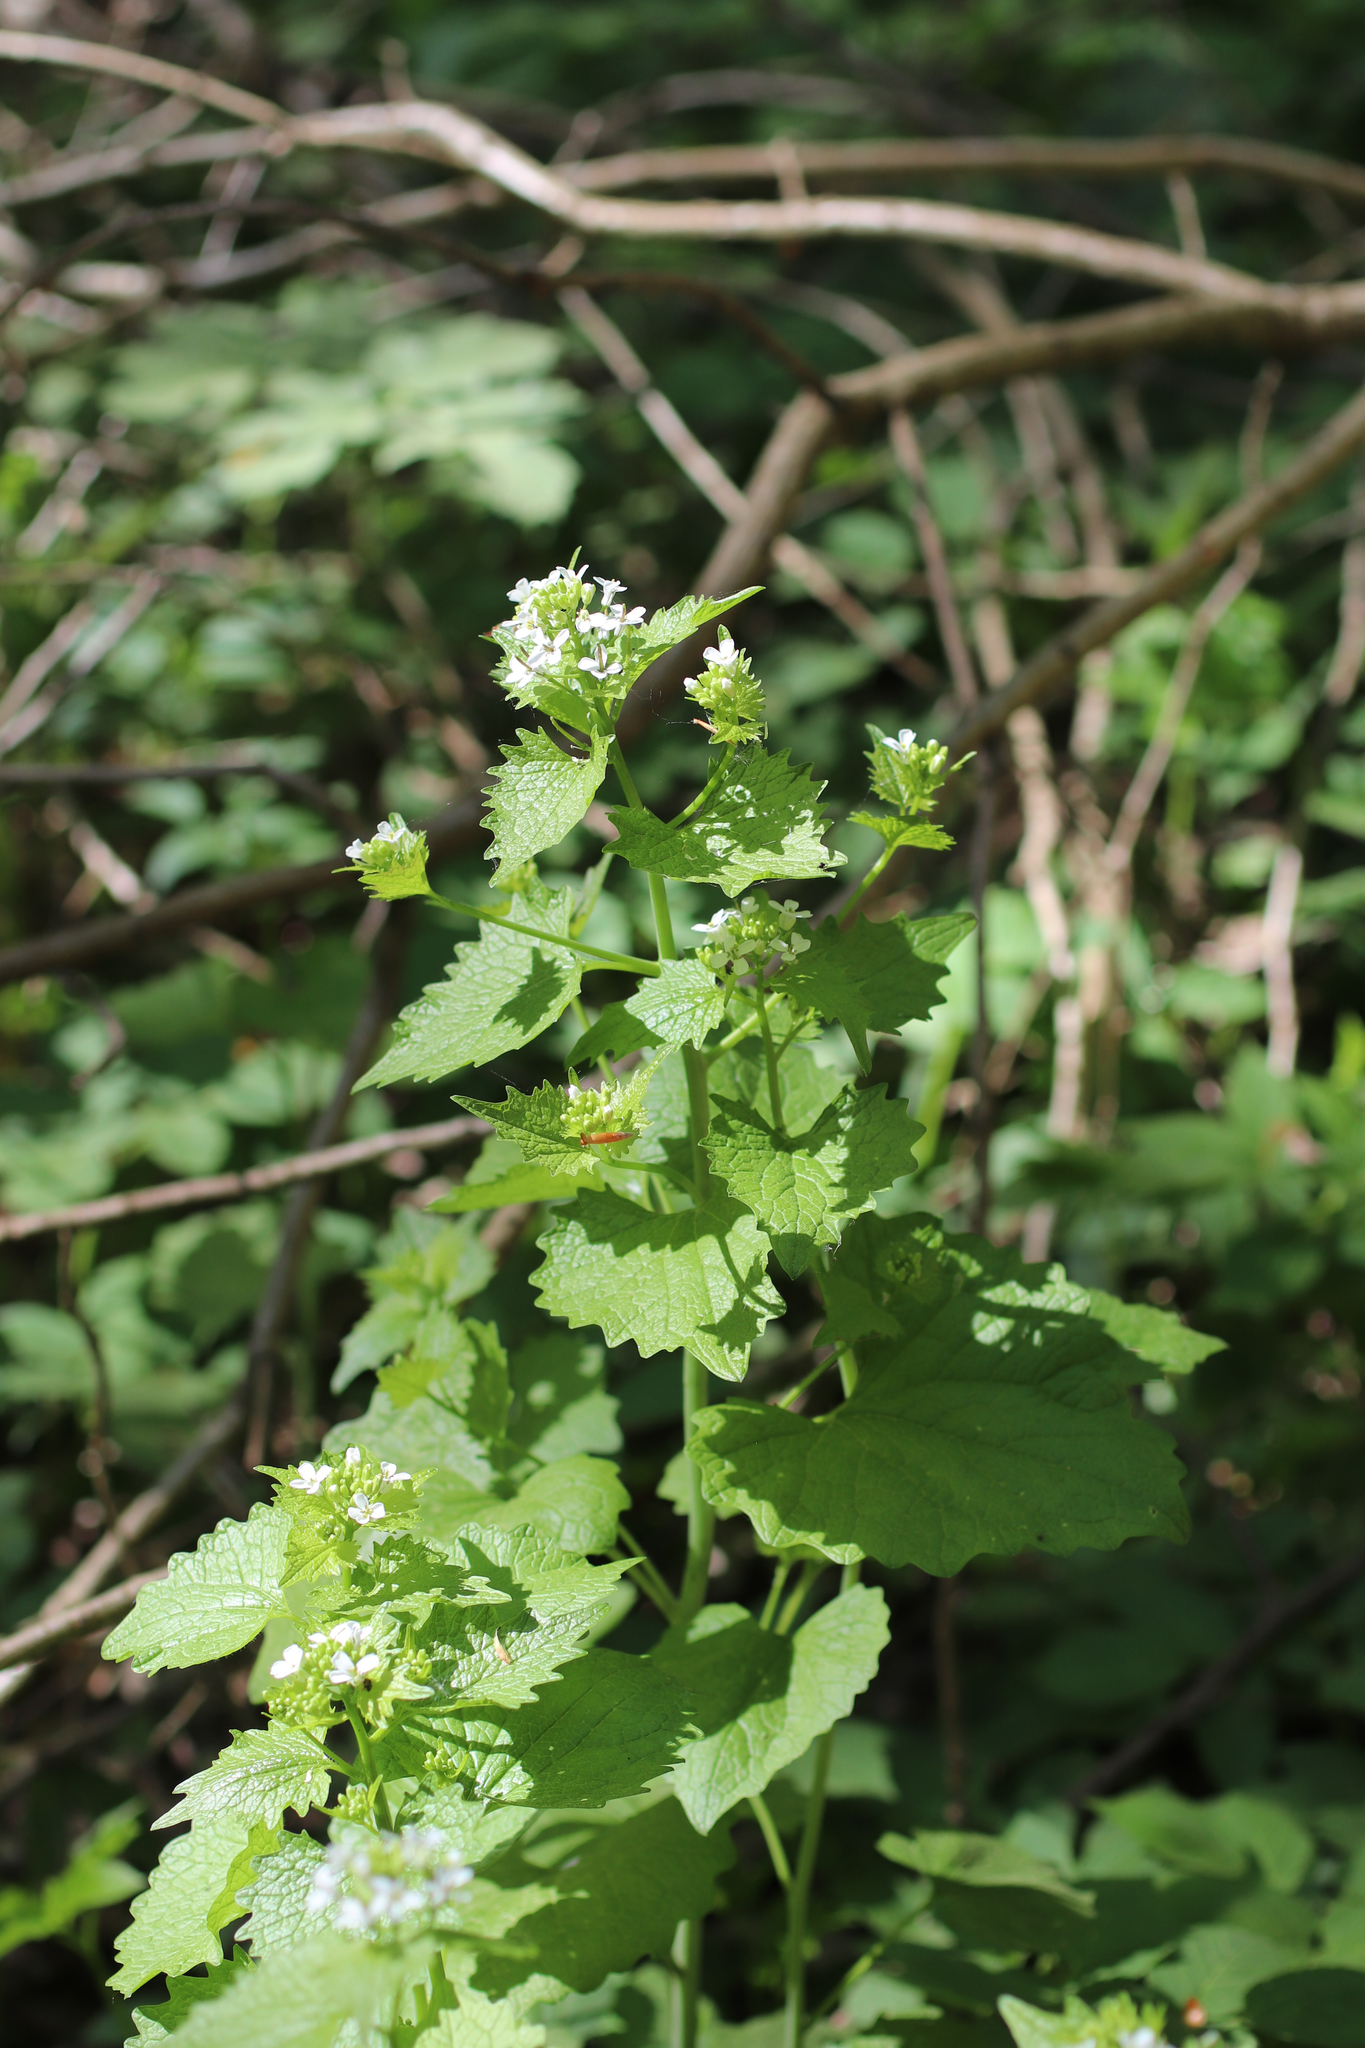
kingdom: Plantae
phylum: Tracheophyta
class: Magnoliopsida
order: Brassicales
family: Brassicaceae
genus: Alliaria
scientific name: Alliaria petiolata
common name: Garlic mustard
